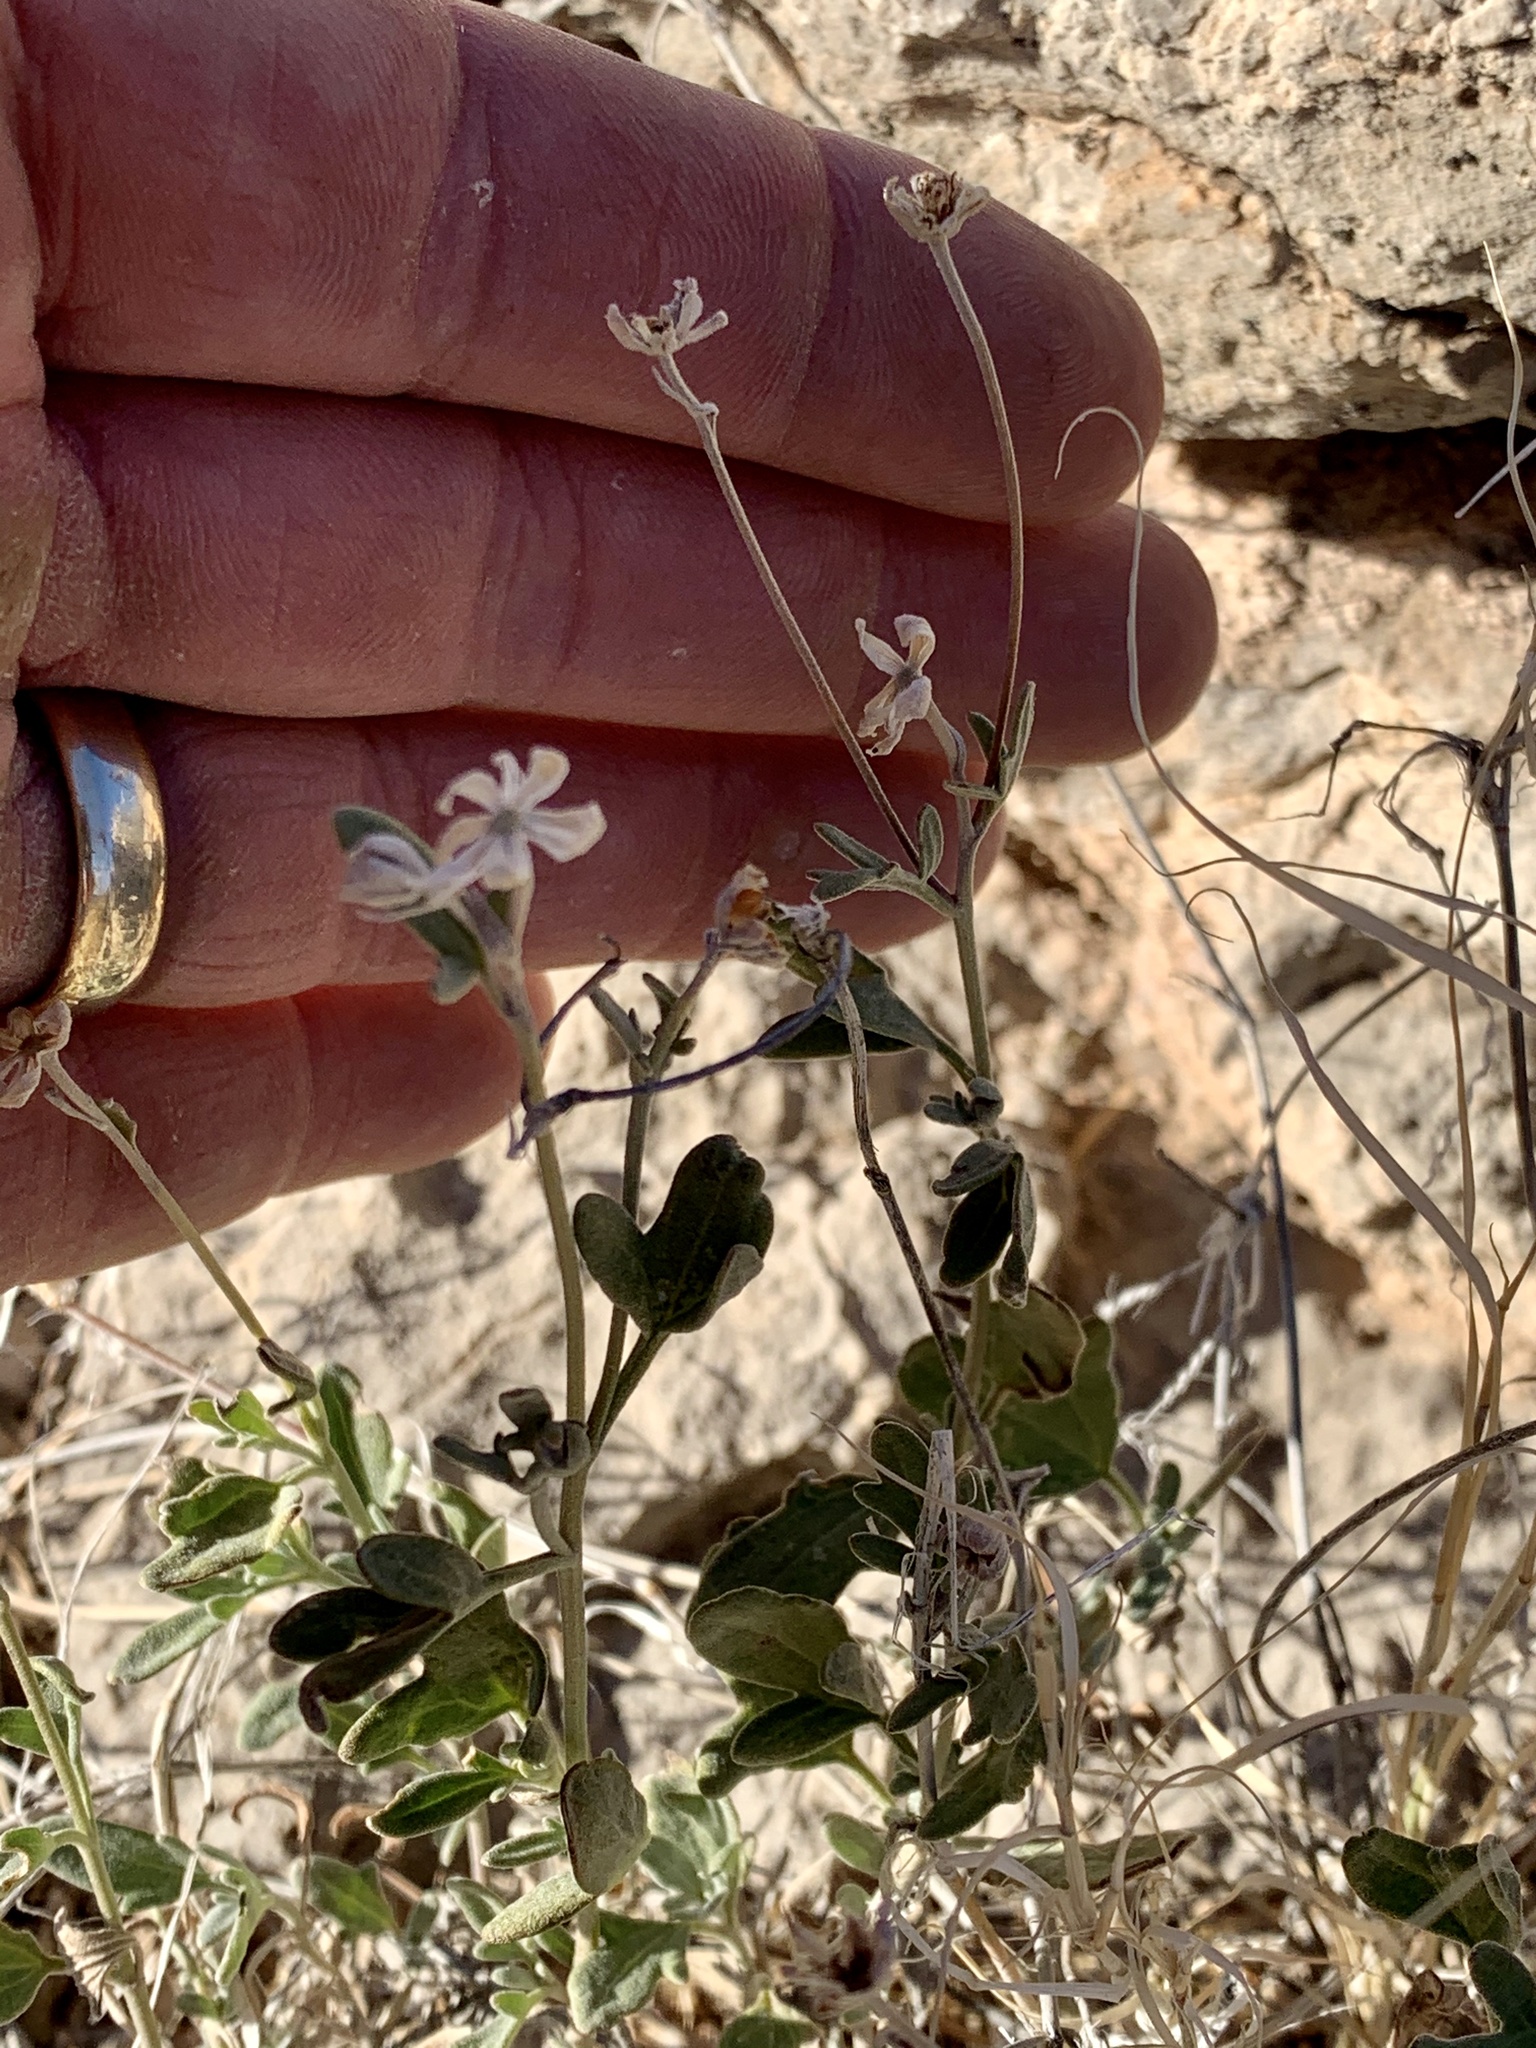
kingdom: Plantae
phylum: Tracheophyta
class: Magnoliopsida
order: Asterales
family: Asteraceae
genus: Picradeniopsis
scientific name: Picradeniopsis absinthifolia
